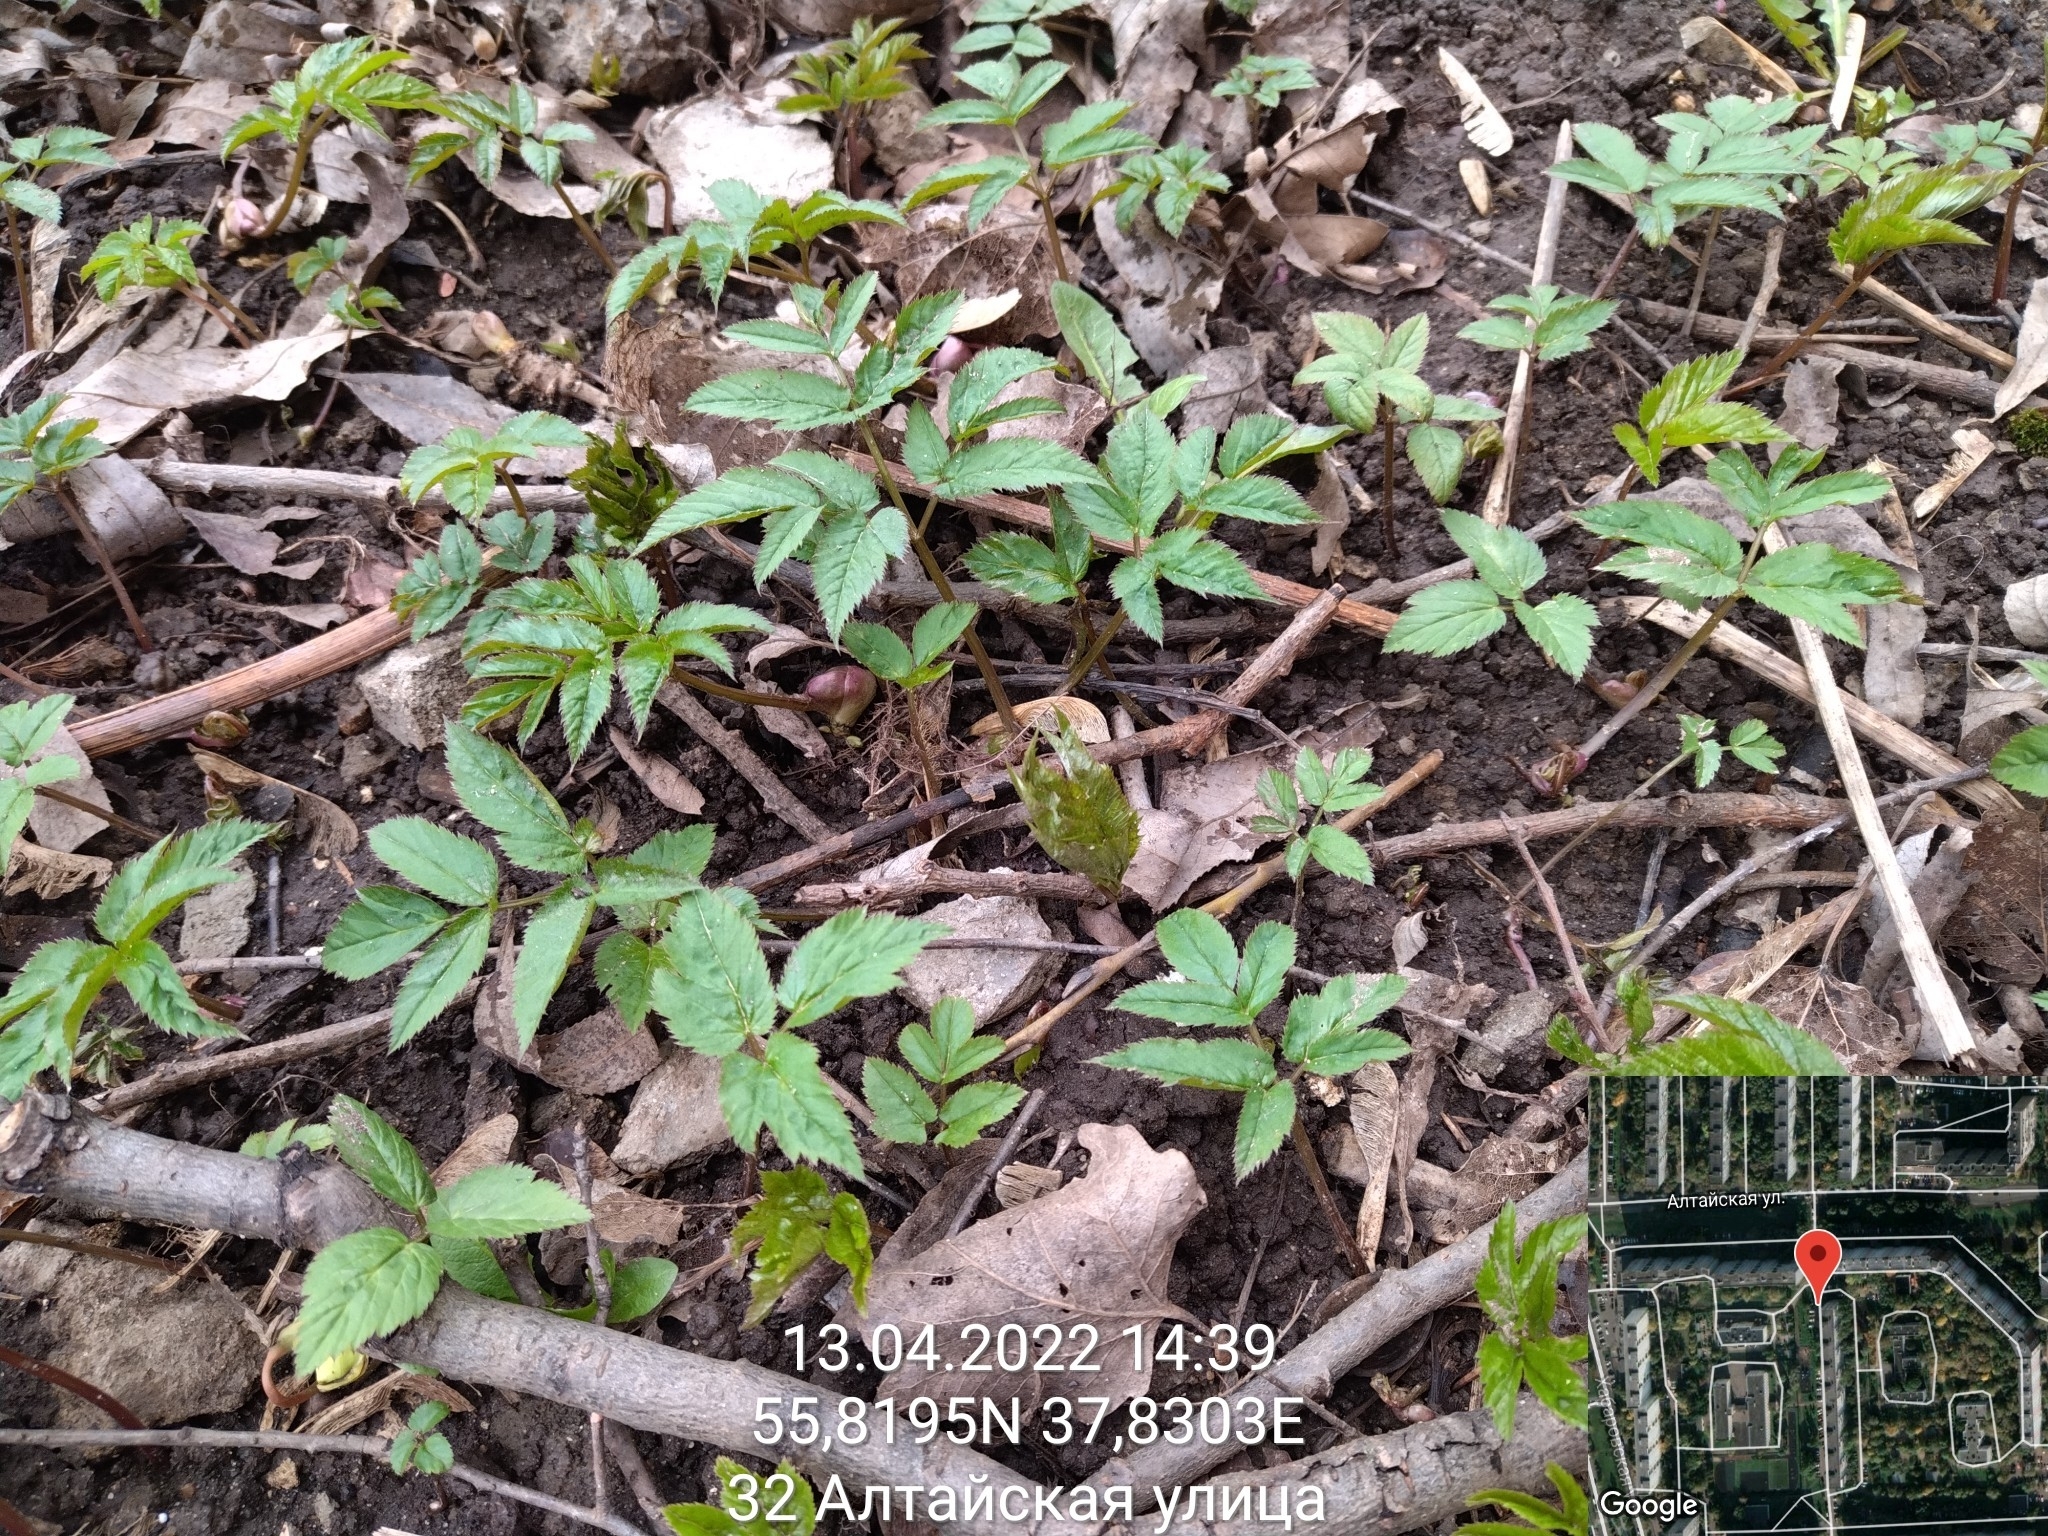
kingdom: Plantae
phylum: Tracheophyta
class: Magnoliopsida
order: Apiales
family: Apiaceae
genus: Aegopodium
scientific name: Aegopodium podagraria
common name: Ground-elder
